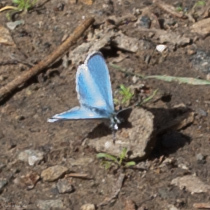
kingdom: Animalia
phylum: Arthropoda
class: Insecta
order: Lepidoptera
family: Lycaenidae
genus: Celastrina
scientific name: Celastrina ladon
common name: Spring azure
